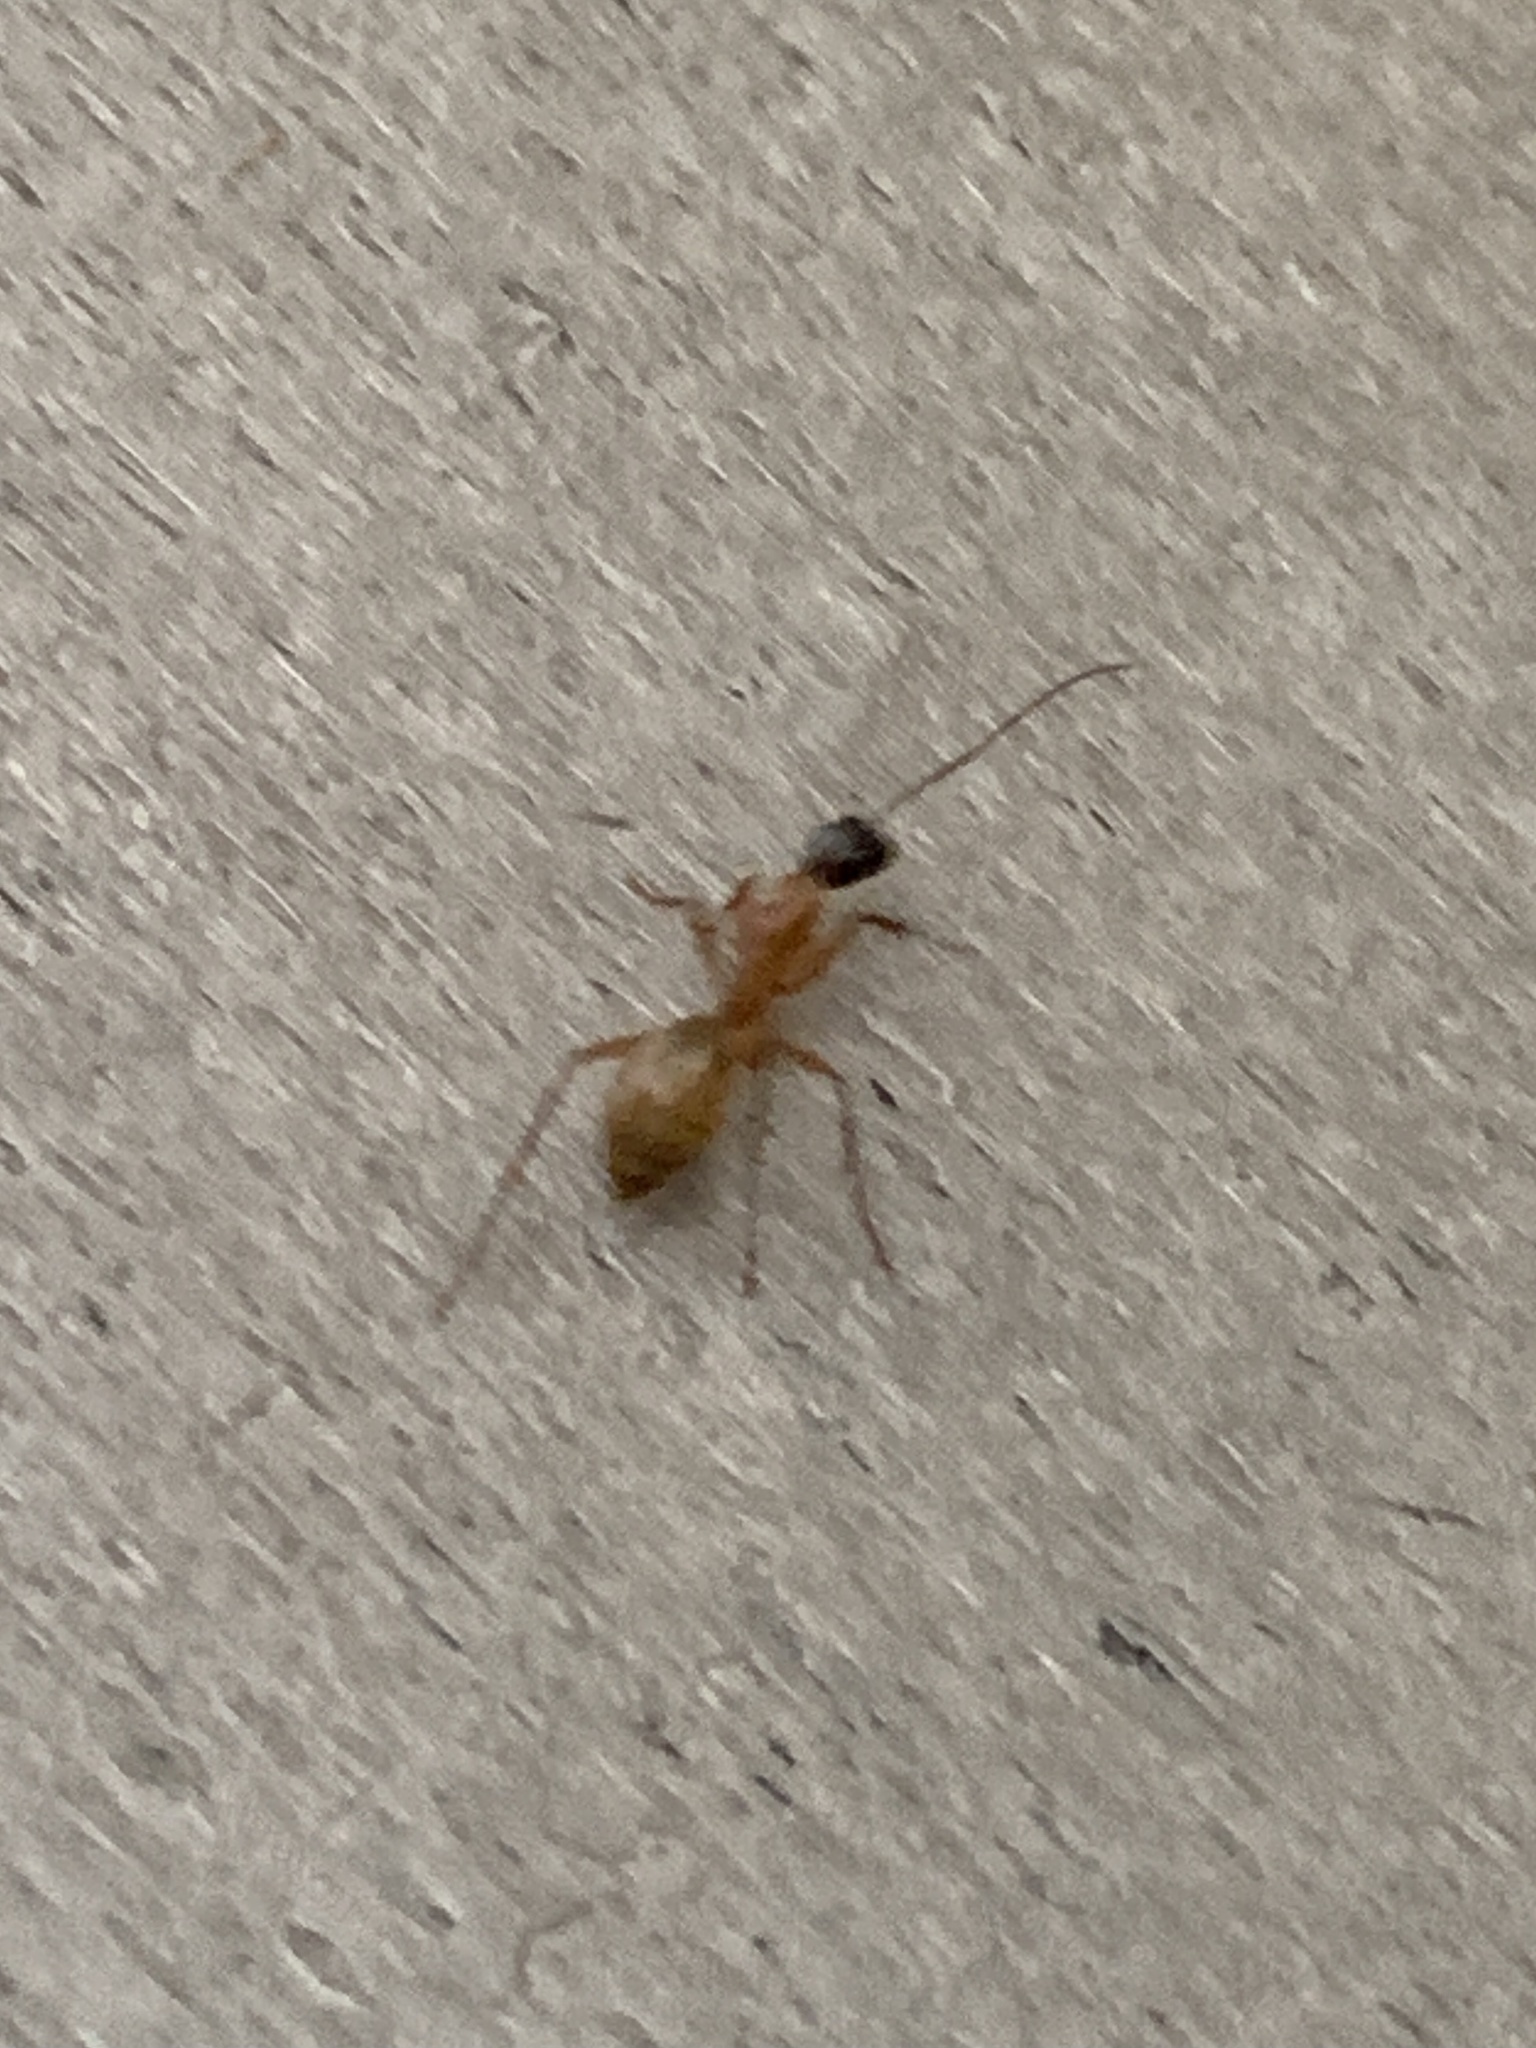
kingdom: Animalia
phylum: Arthropoda
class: Insecta
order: Hymenoptera
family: Formicidae
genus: Camponotus
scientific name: Camponotus americanus
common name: American carpenter ant
